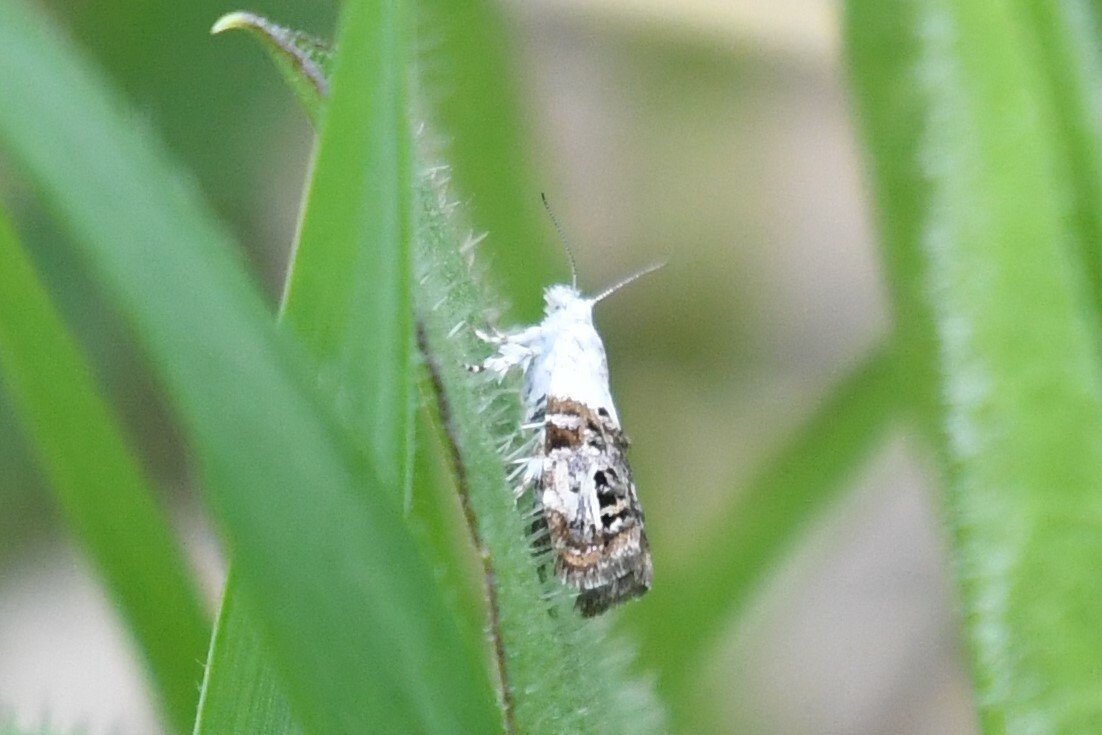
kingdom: Animalia
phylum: Arthropoda
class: Insecta
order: Lepidoptera
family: Choreutidae
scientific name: Choreutidae
